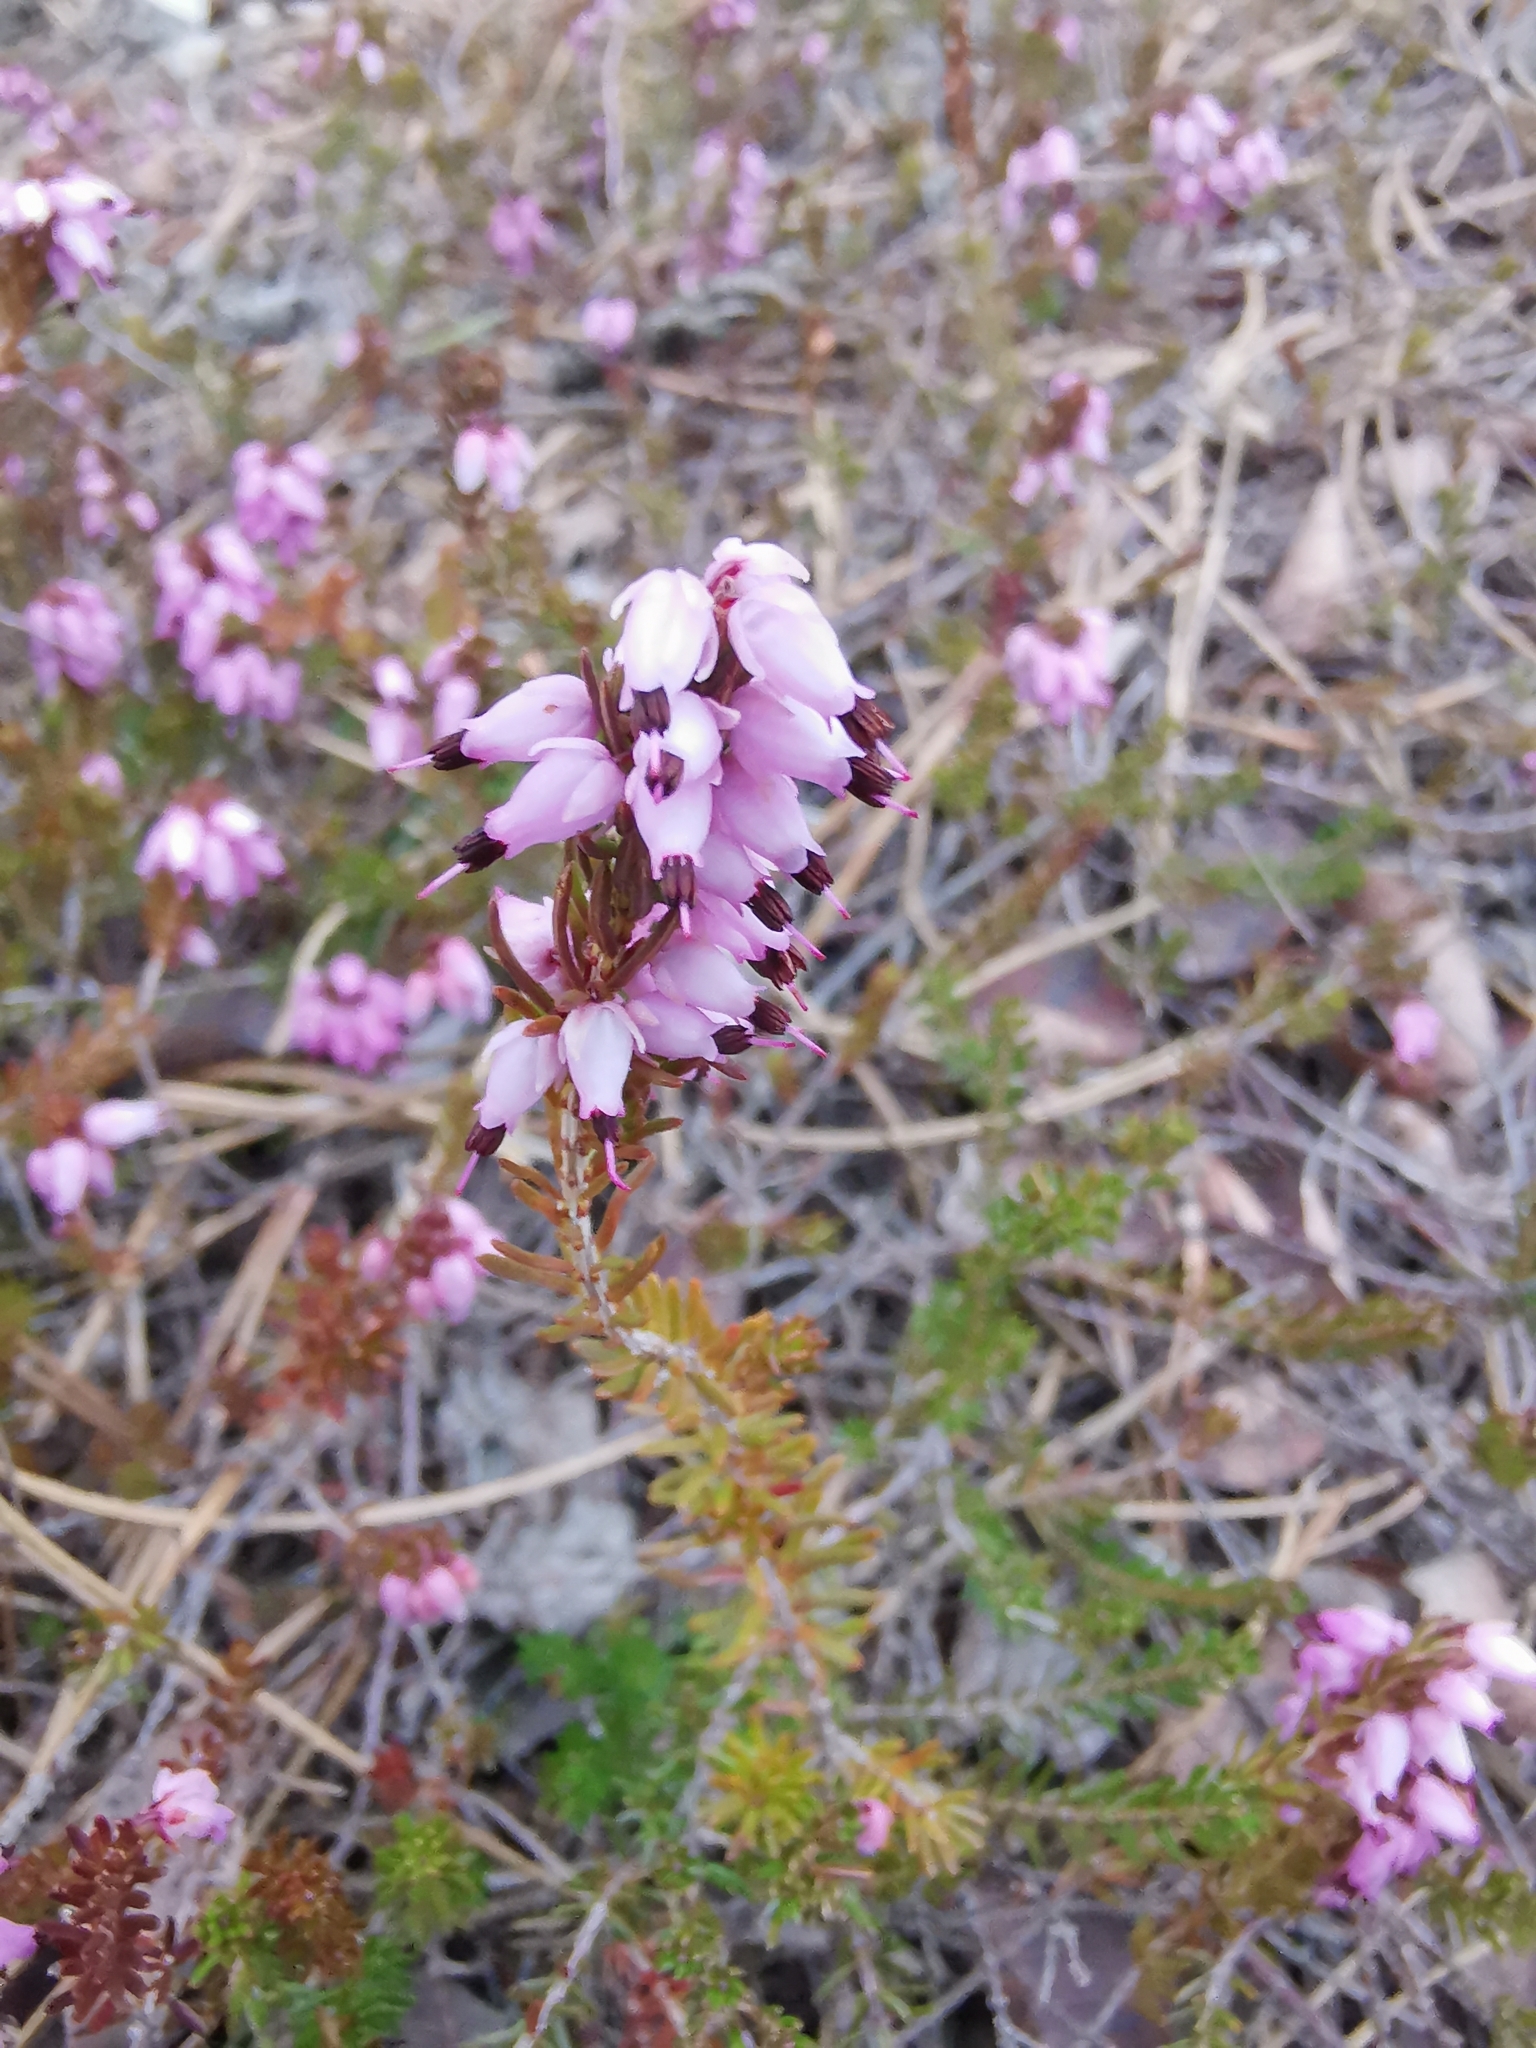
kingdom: Plantae
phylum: Tracheophyta
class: Magnoliopsida
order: Ericales
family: Ericaceae
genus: Erica
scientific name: Erica carnea
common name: Winter heath
